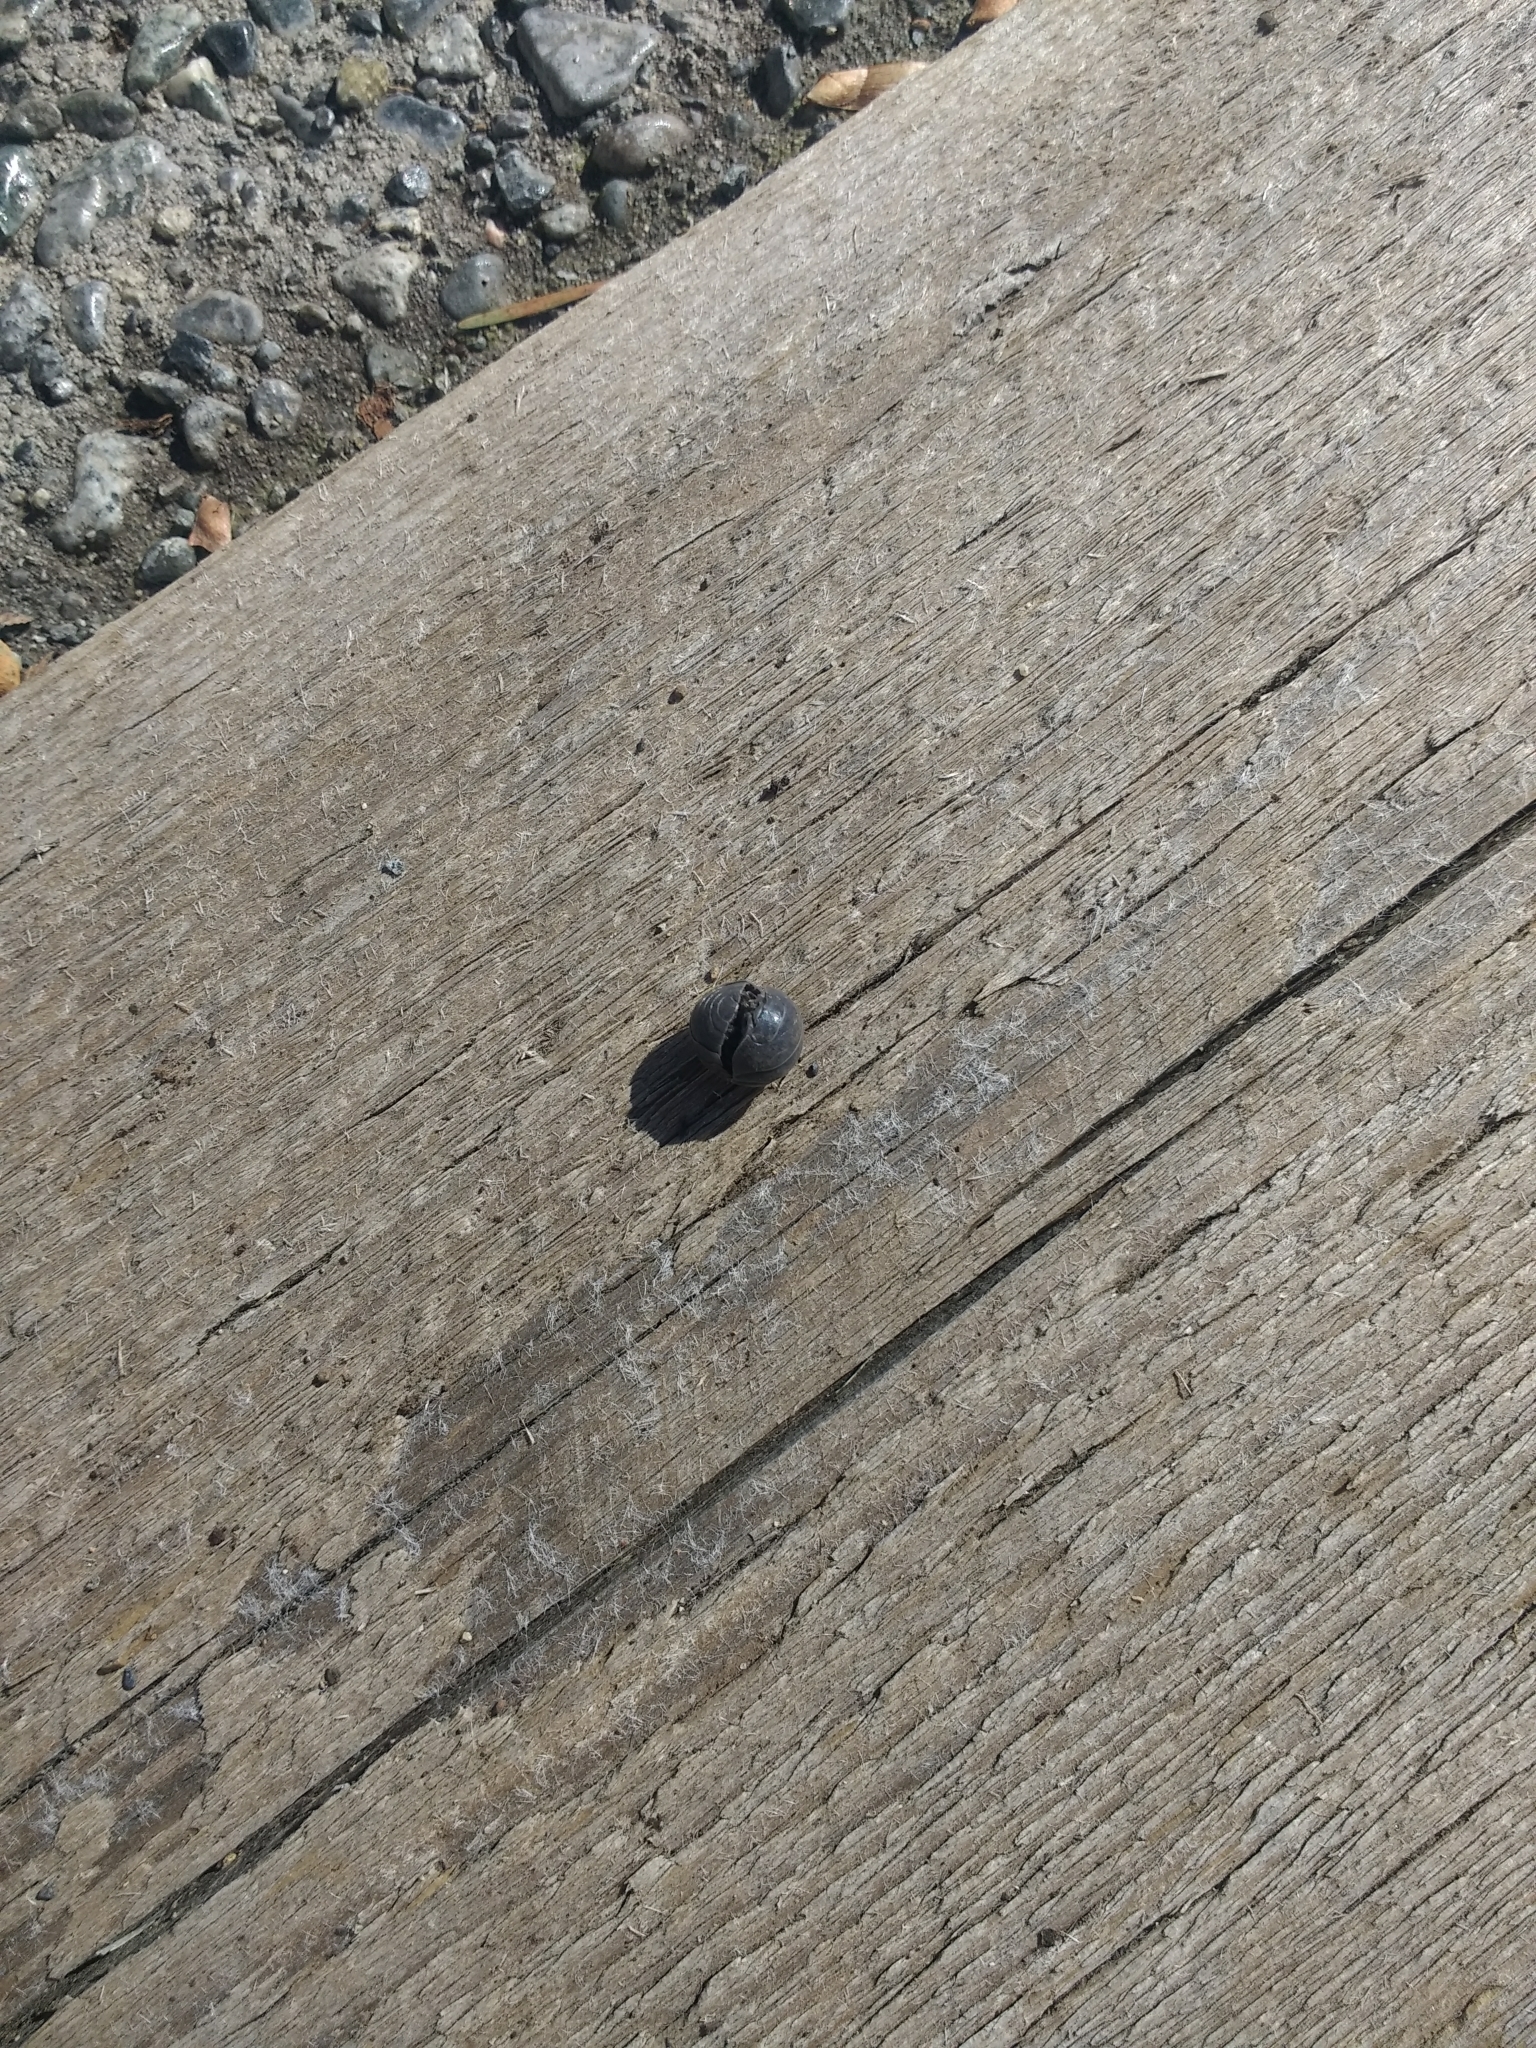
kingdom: Animalia
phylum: Arthropoda
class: Malacostraca
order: Isopoda
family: Armadillidiidae
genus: Armadillidium
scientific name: Armadillidium vulgare
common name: Common pill woodlouse
